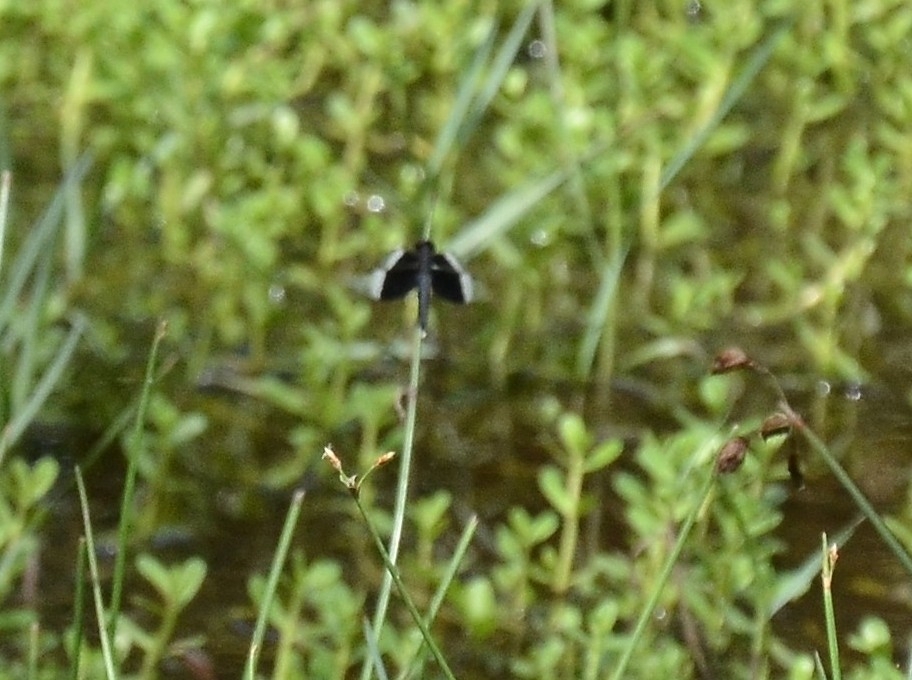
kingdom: Animalia
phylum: Arthropoda
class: Insecta
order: Odonata
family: Libellulidae
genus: Neurothemis
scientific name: Neurothemis tullia
